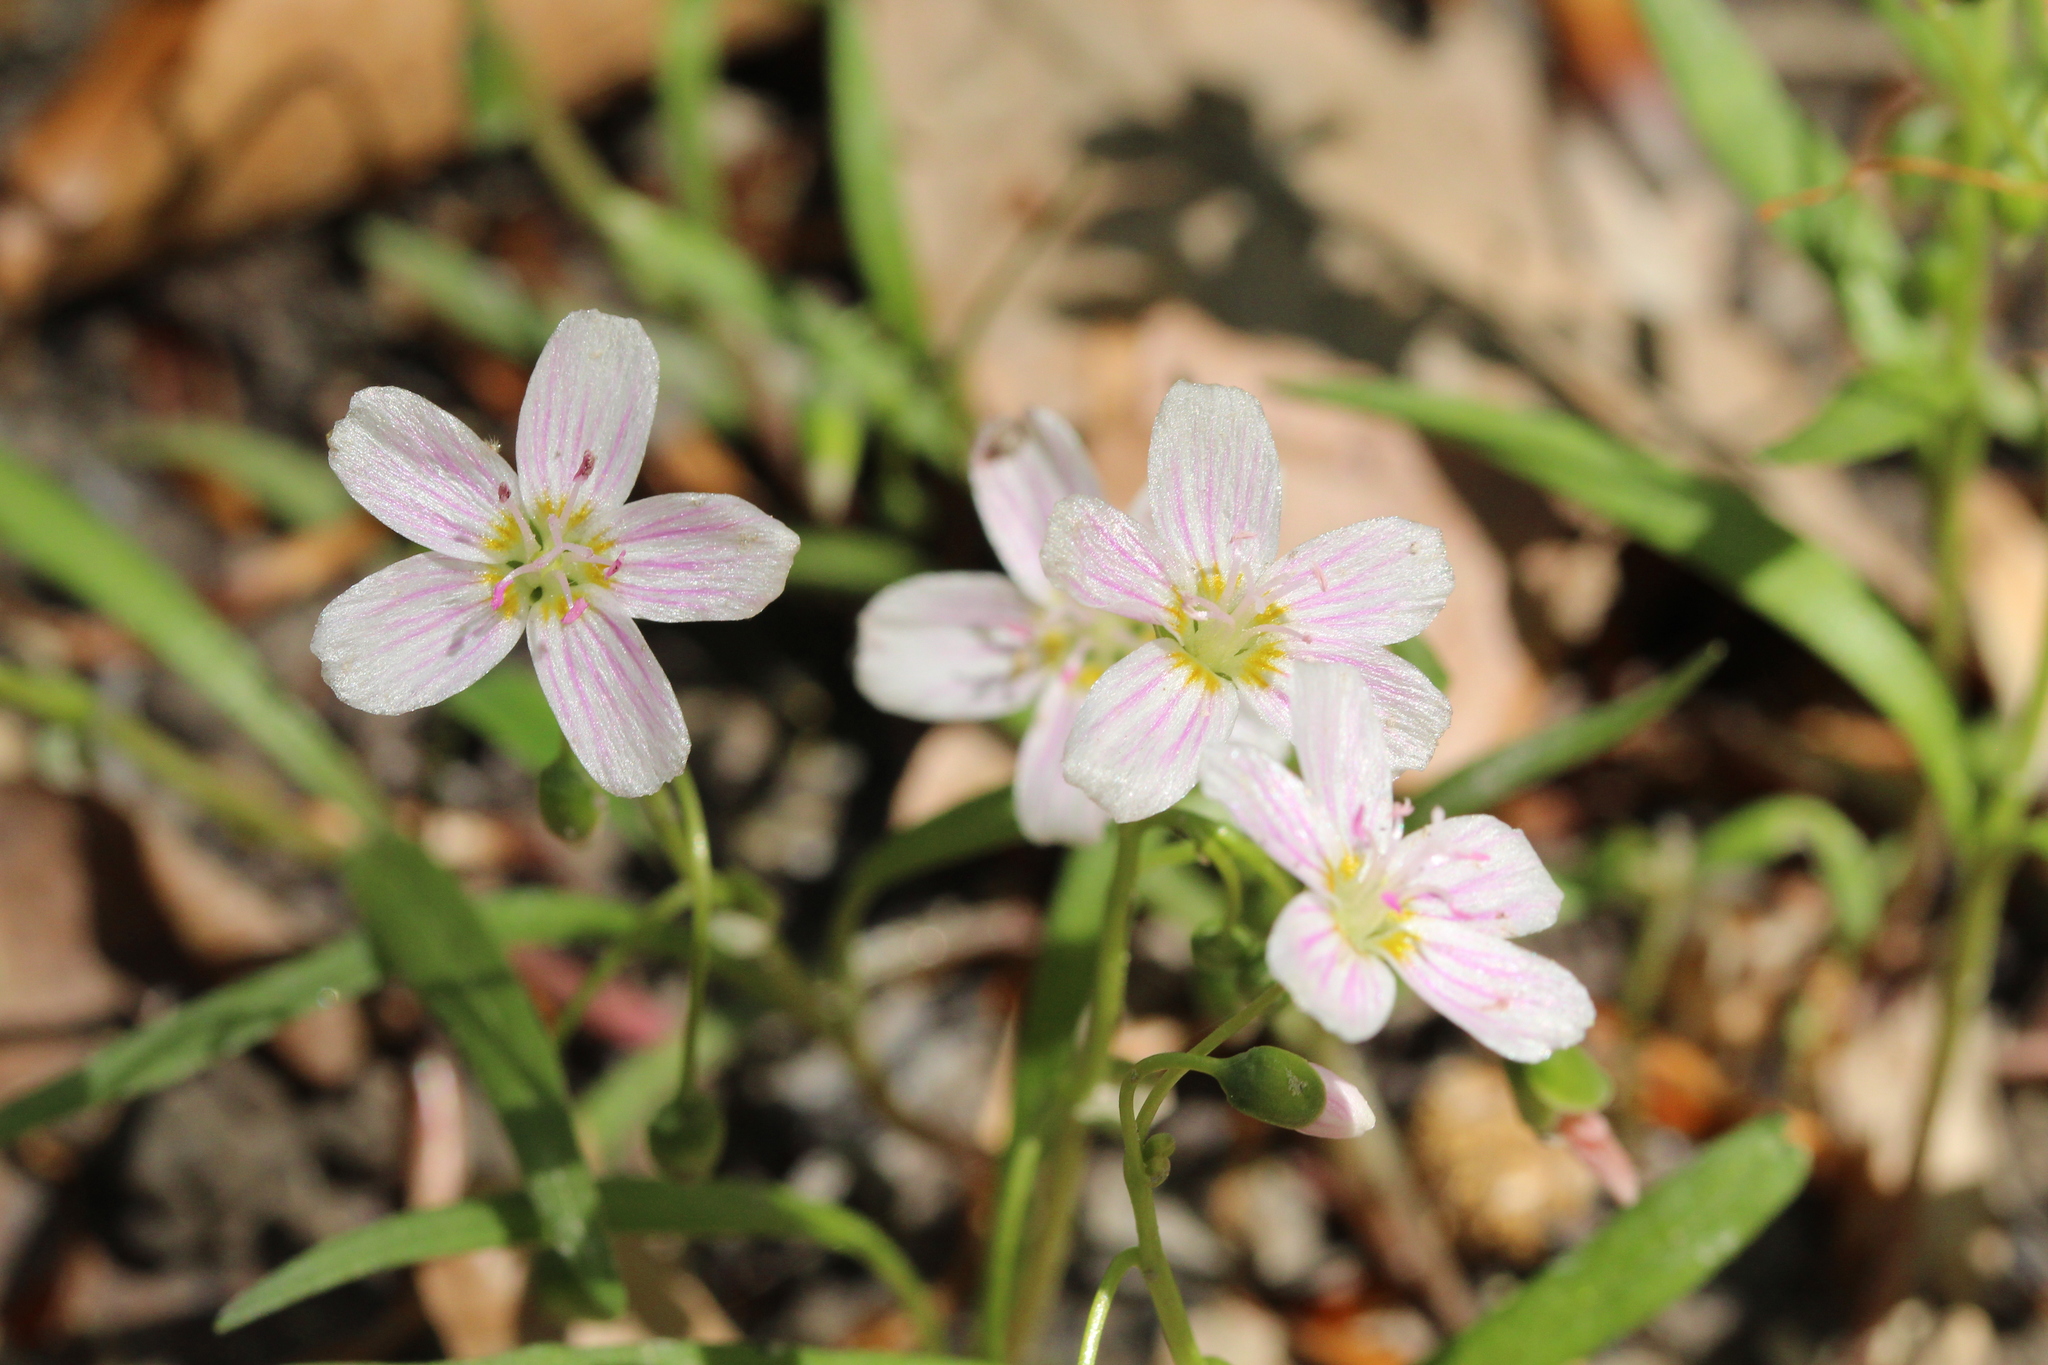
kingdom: Plantae
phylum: Tracheophyta
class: Magnoliopsida
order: Caryophyllales
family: Montiaceae
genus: Claytonia
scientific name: Claytonia virginica
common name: Virginia springbeauty
